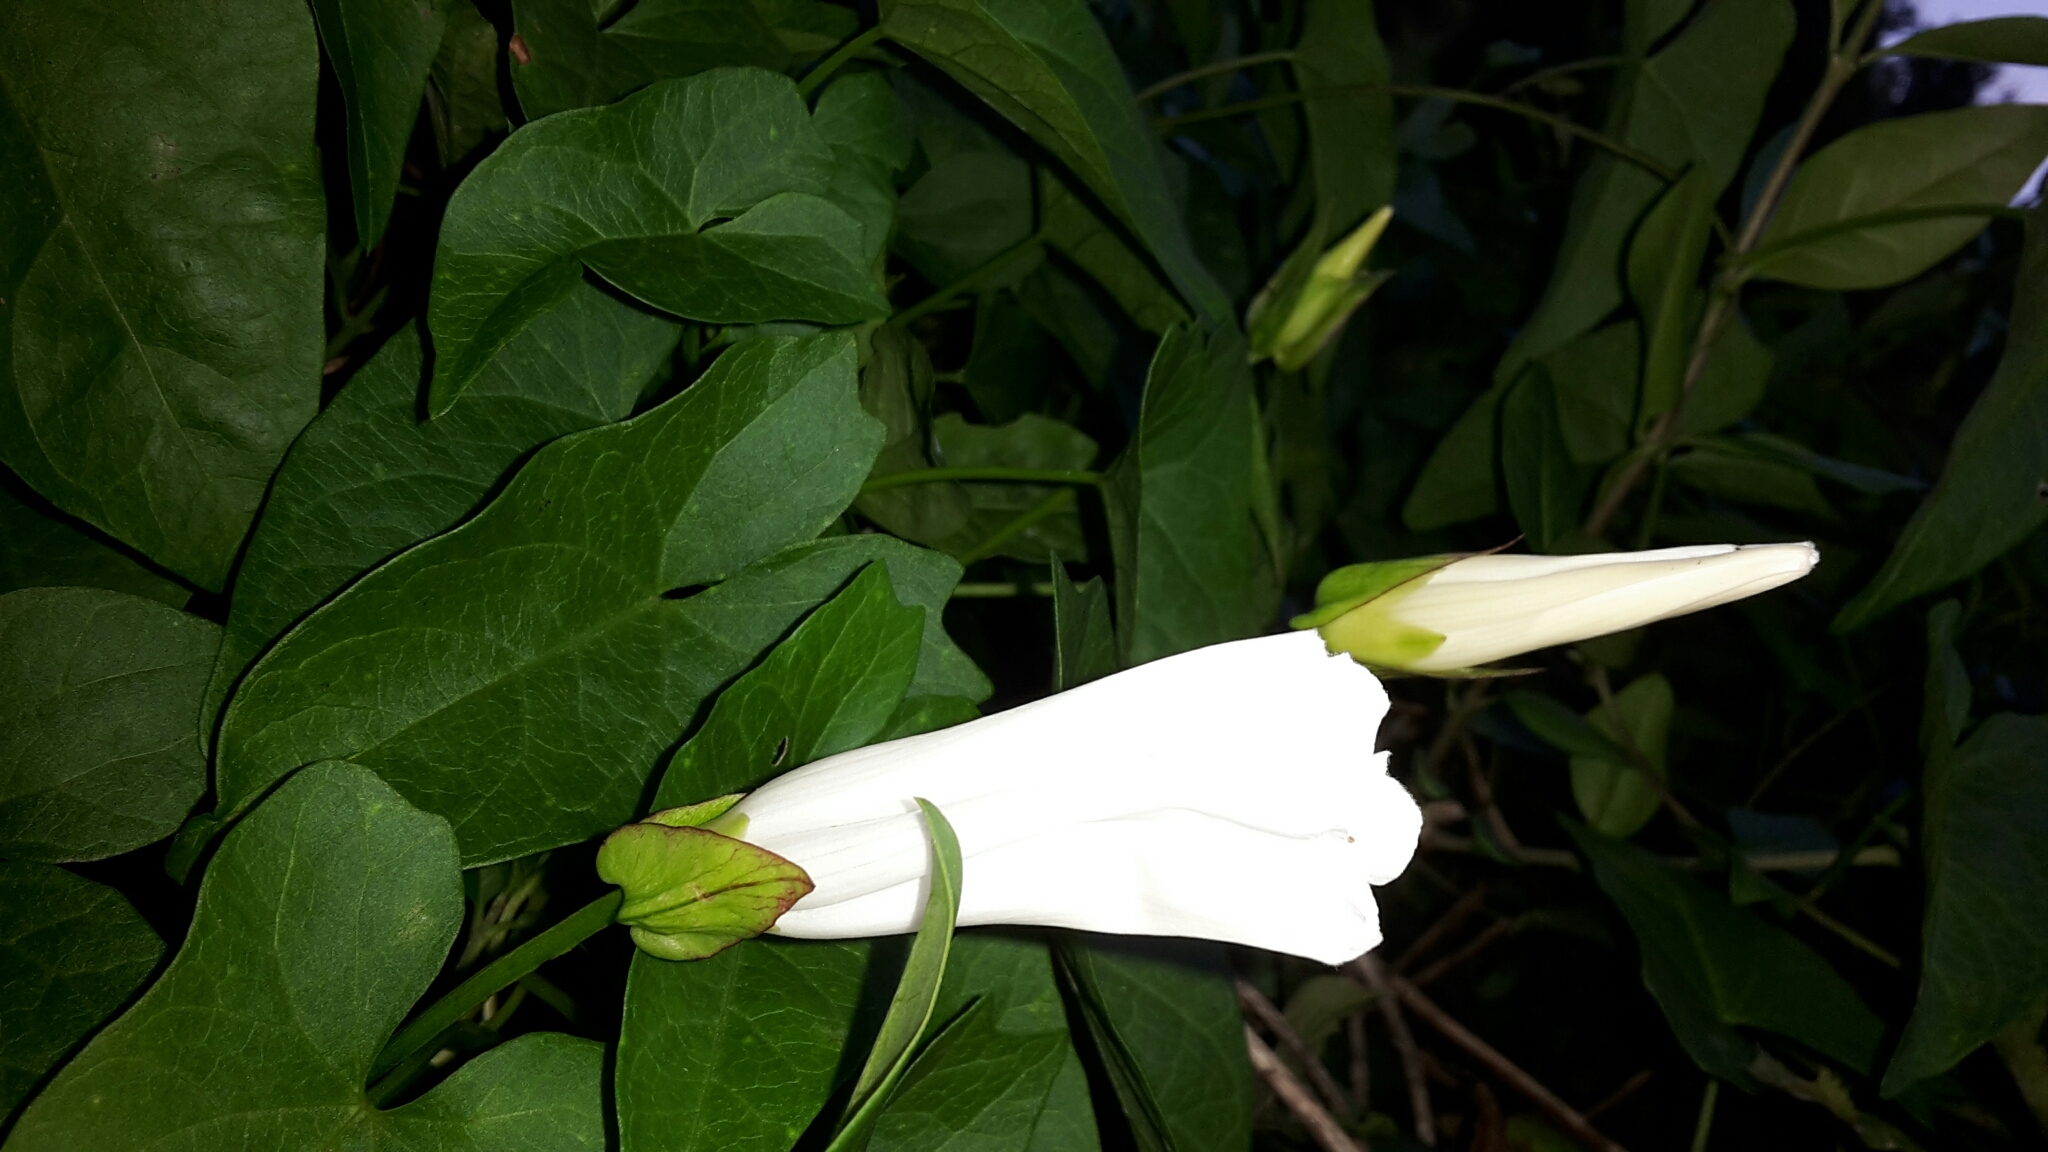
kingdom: Plantae
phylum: Tracheophyta
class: Magnoliopsida
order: Solanales
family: Convolvulaceae
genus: Calystegia
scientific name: Calystegia sepium
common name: Hedge bindweed
